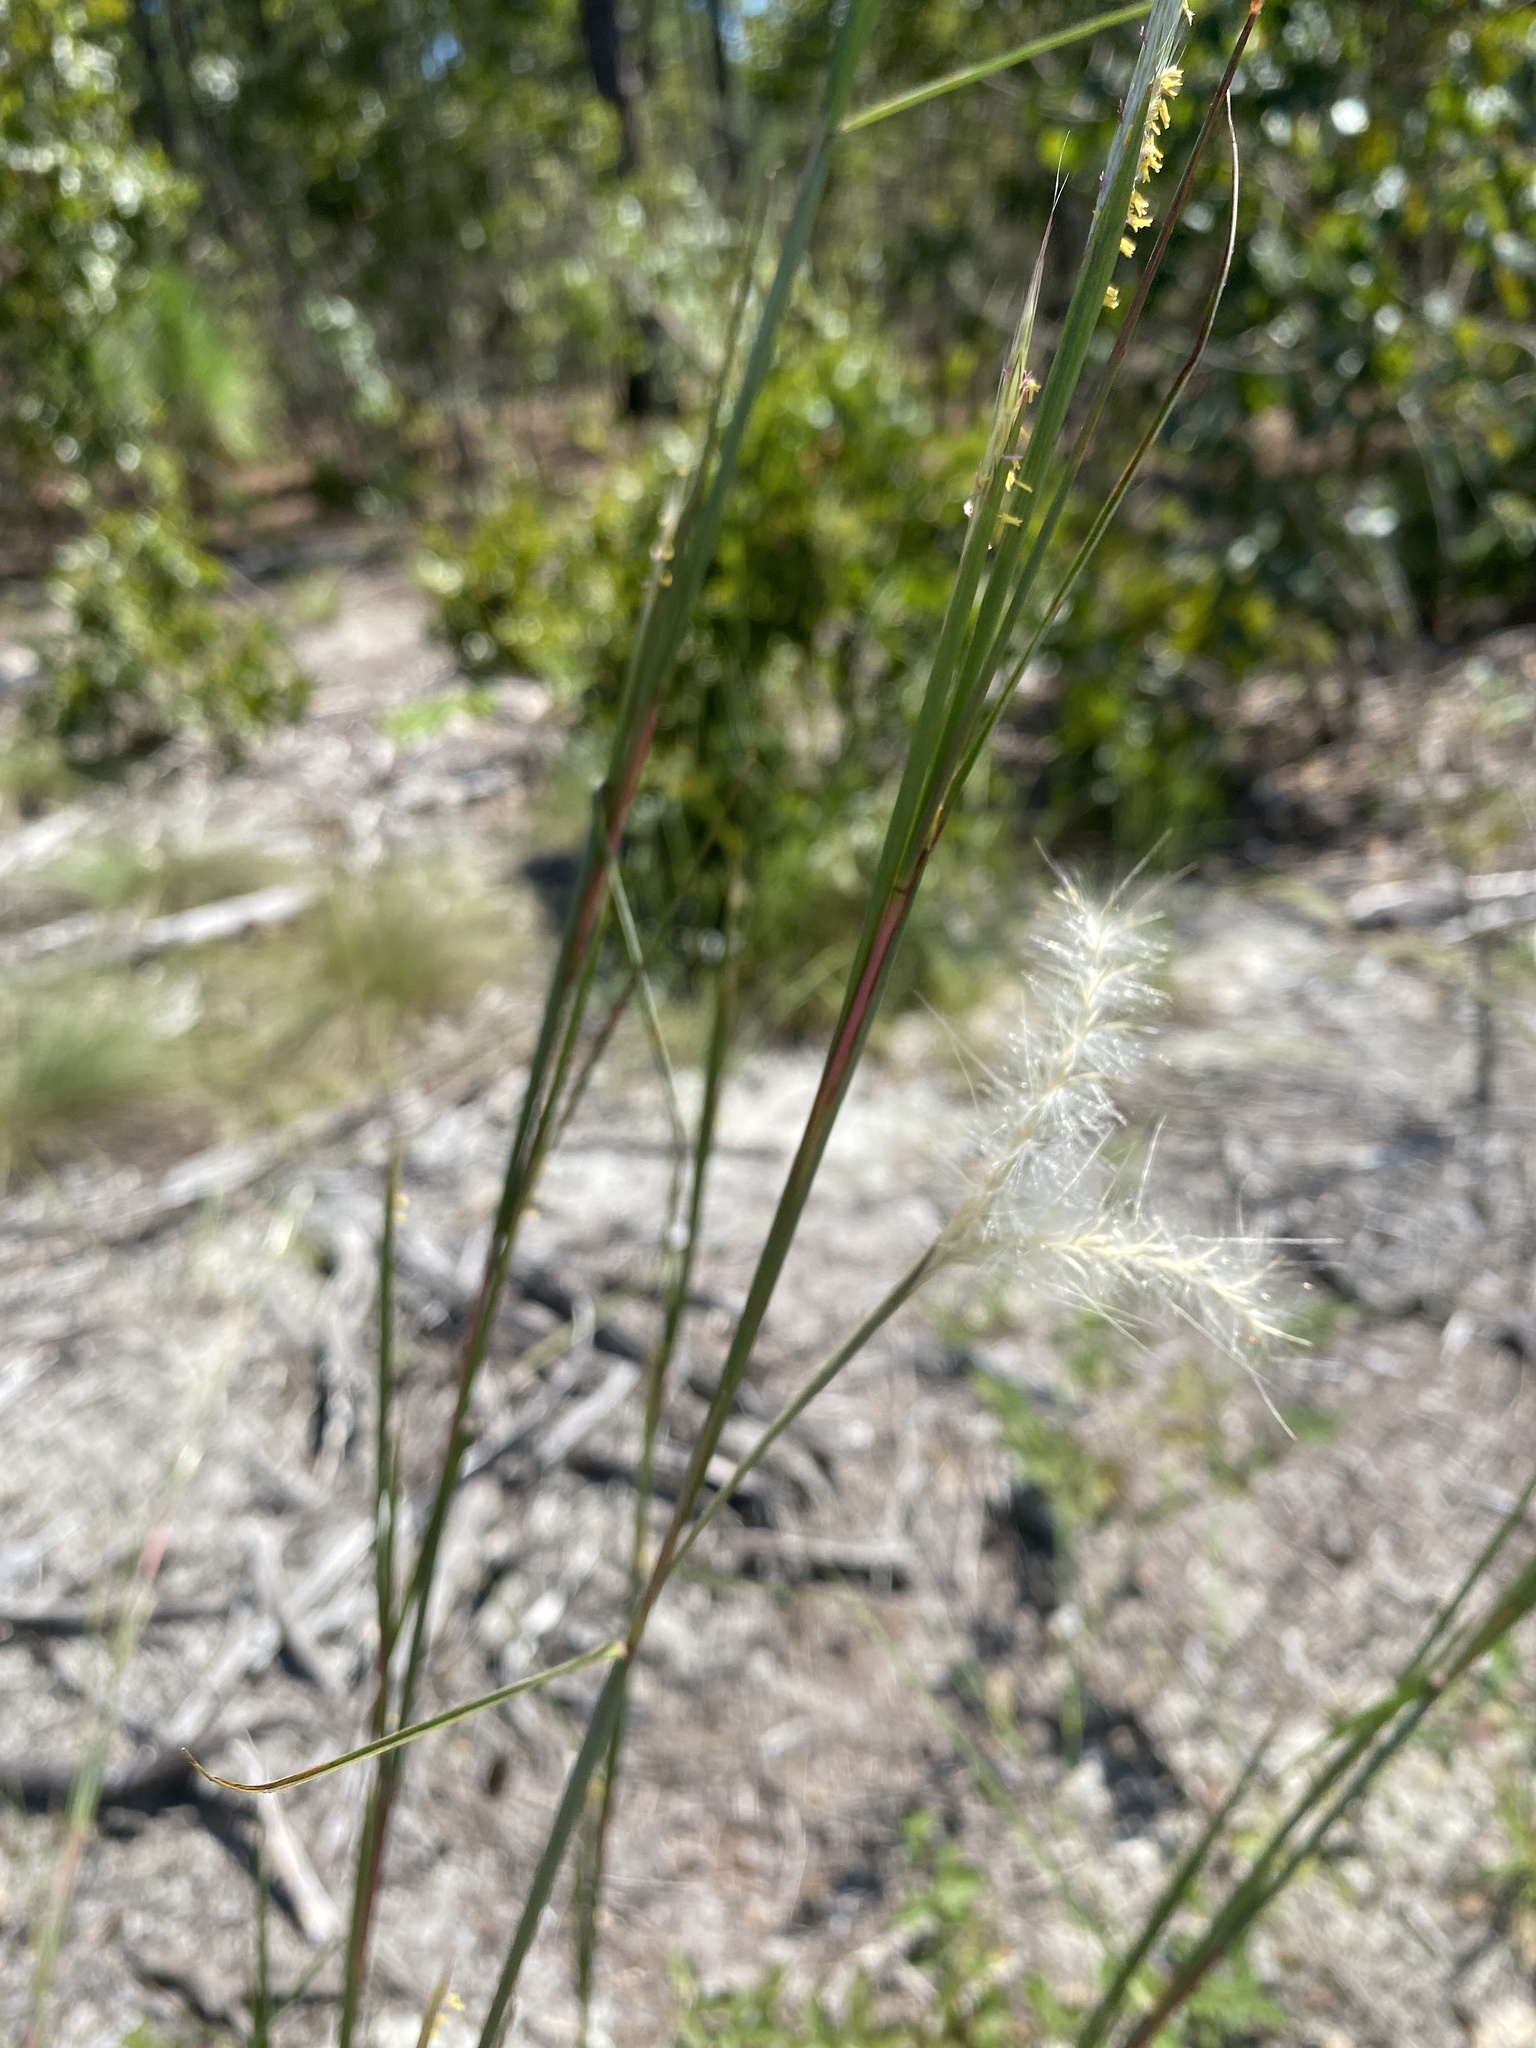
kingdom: Plantae
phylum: Tracheophyta
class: Liliopsida
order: Poales
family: Poaceae
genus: Andropogon
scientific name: Andropogon ternarius
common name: Split bluestem
